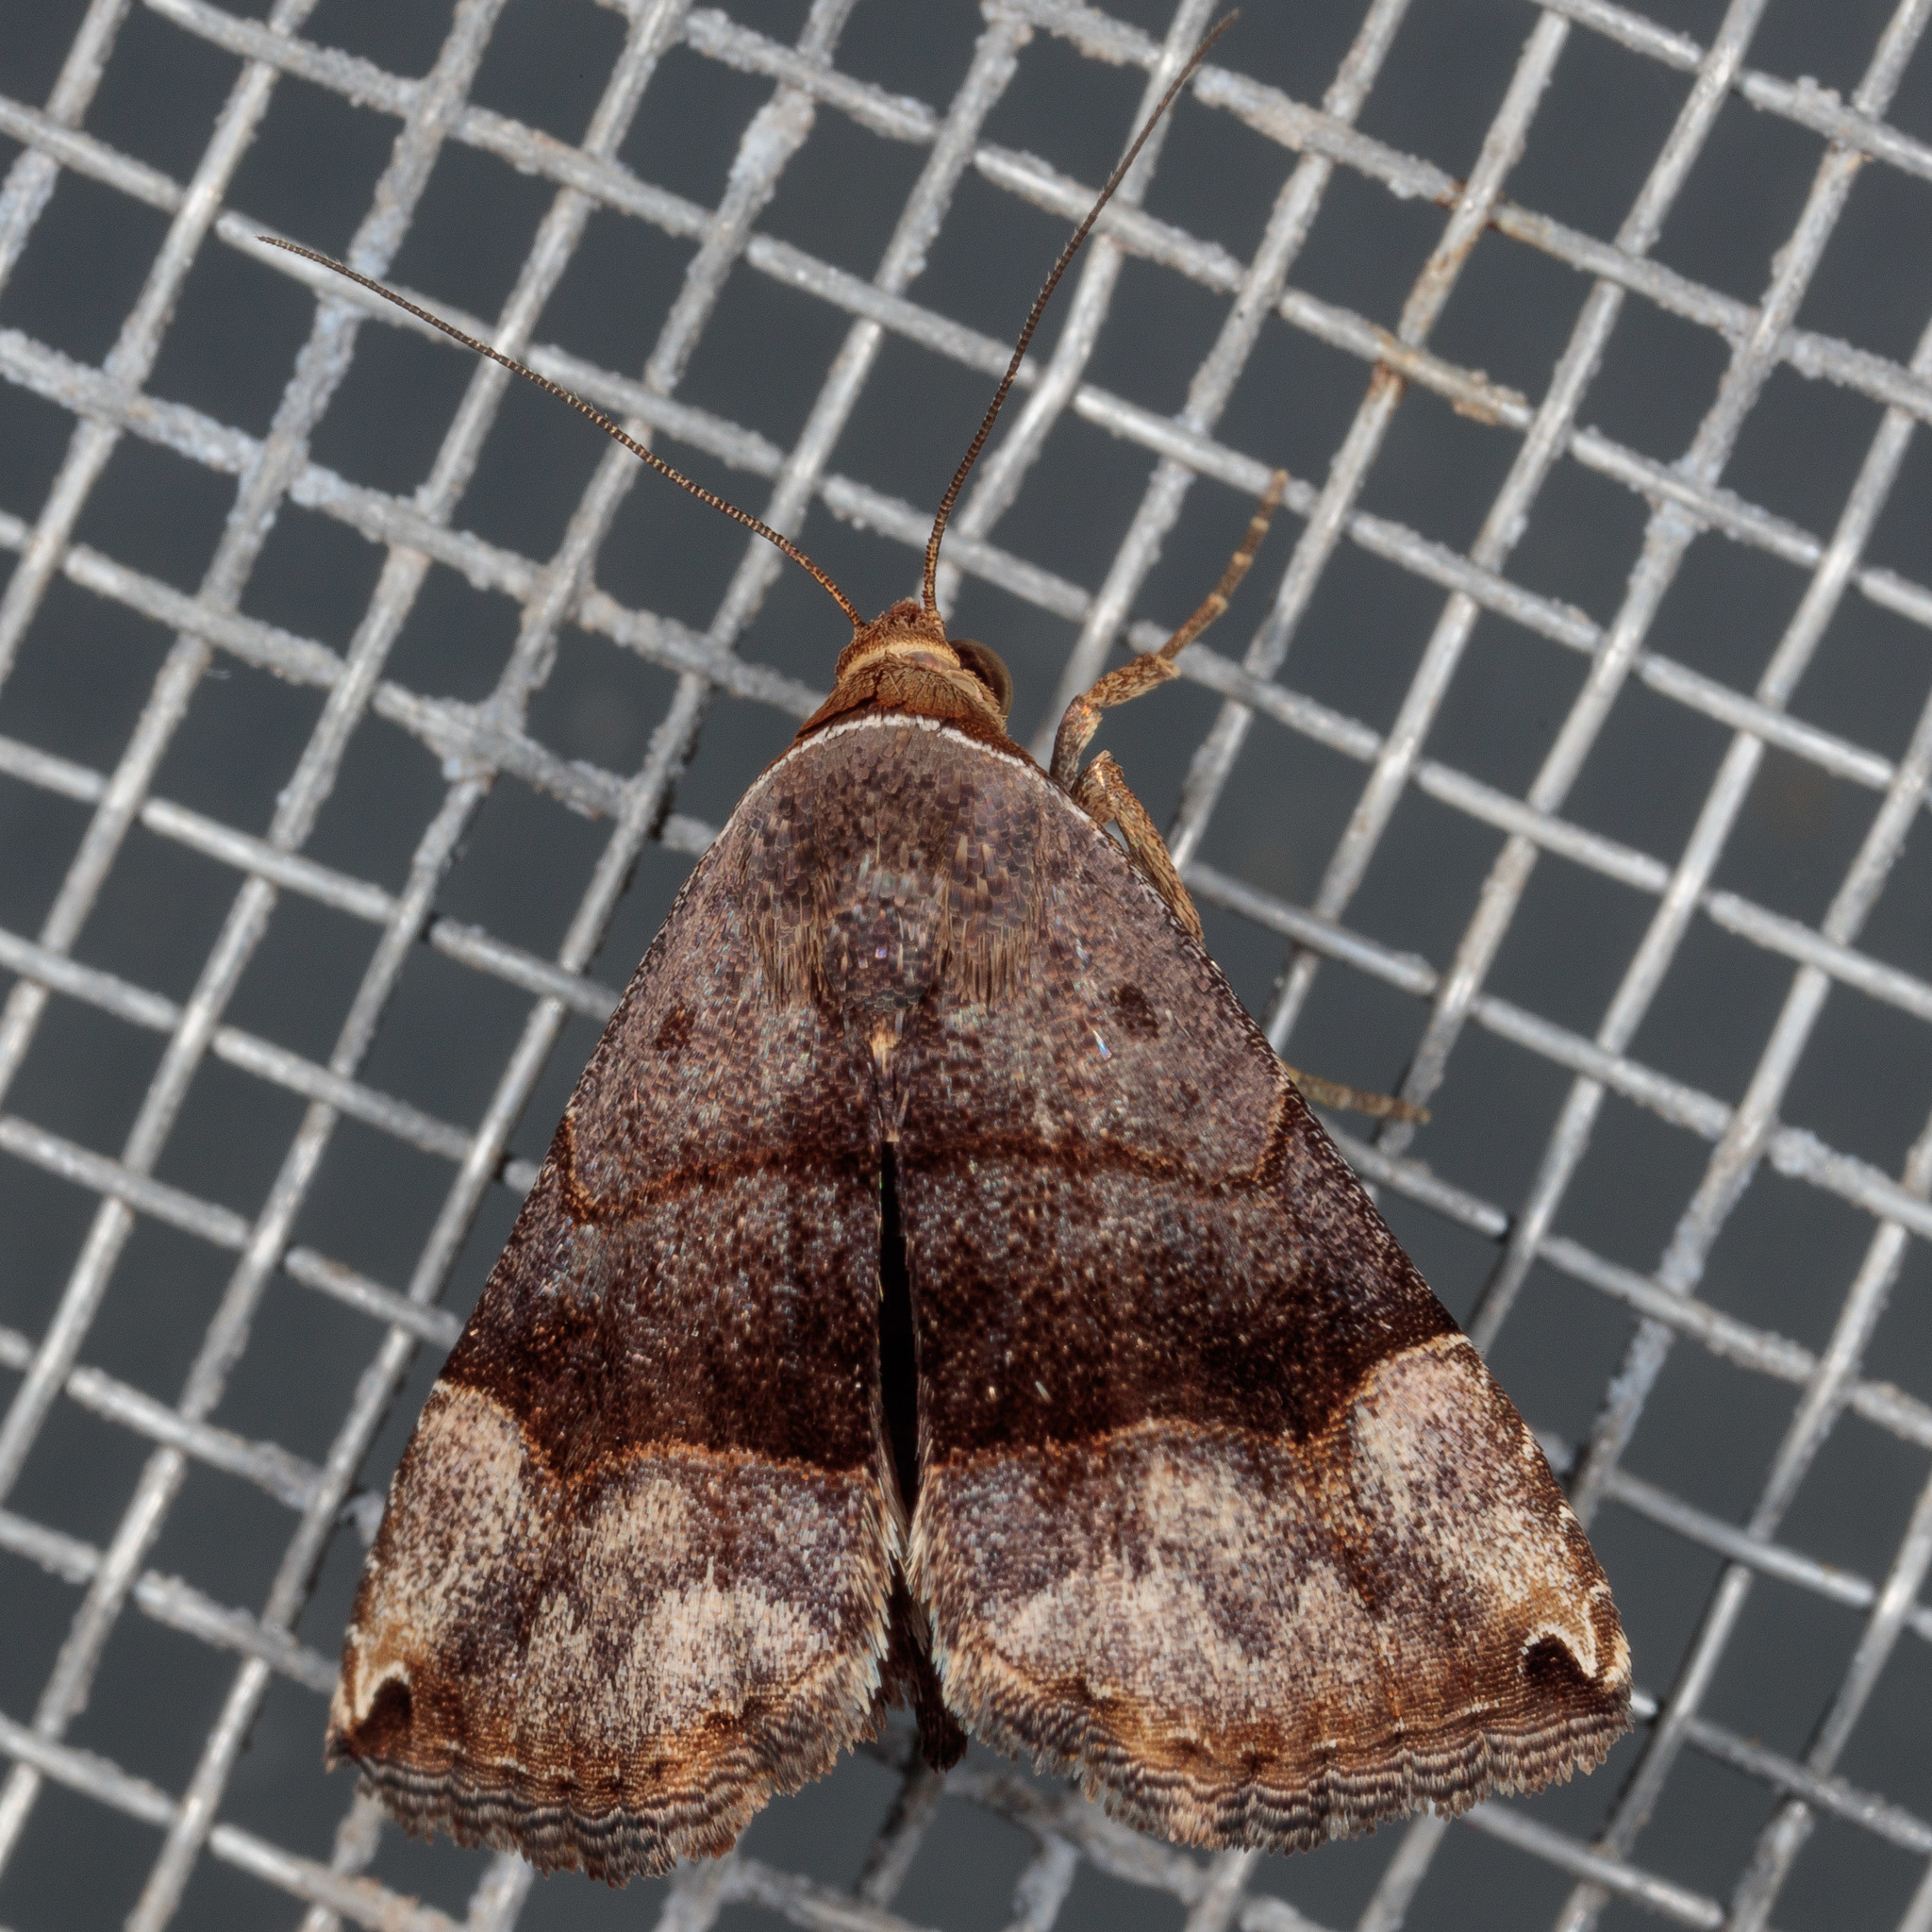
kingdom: Animalia
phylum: Arthropoda
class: Insecta
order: Lepidoptera
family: Noctuidae
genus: Abacena
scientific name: Abacena mundula
